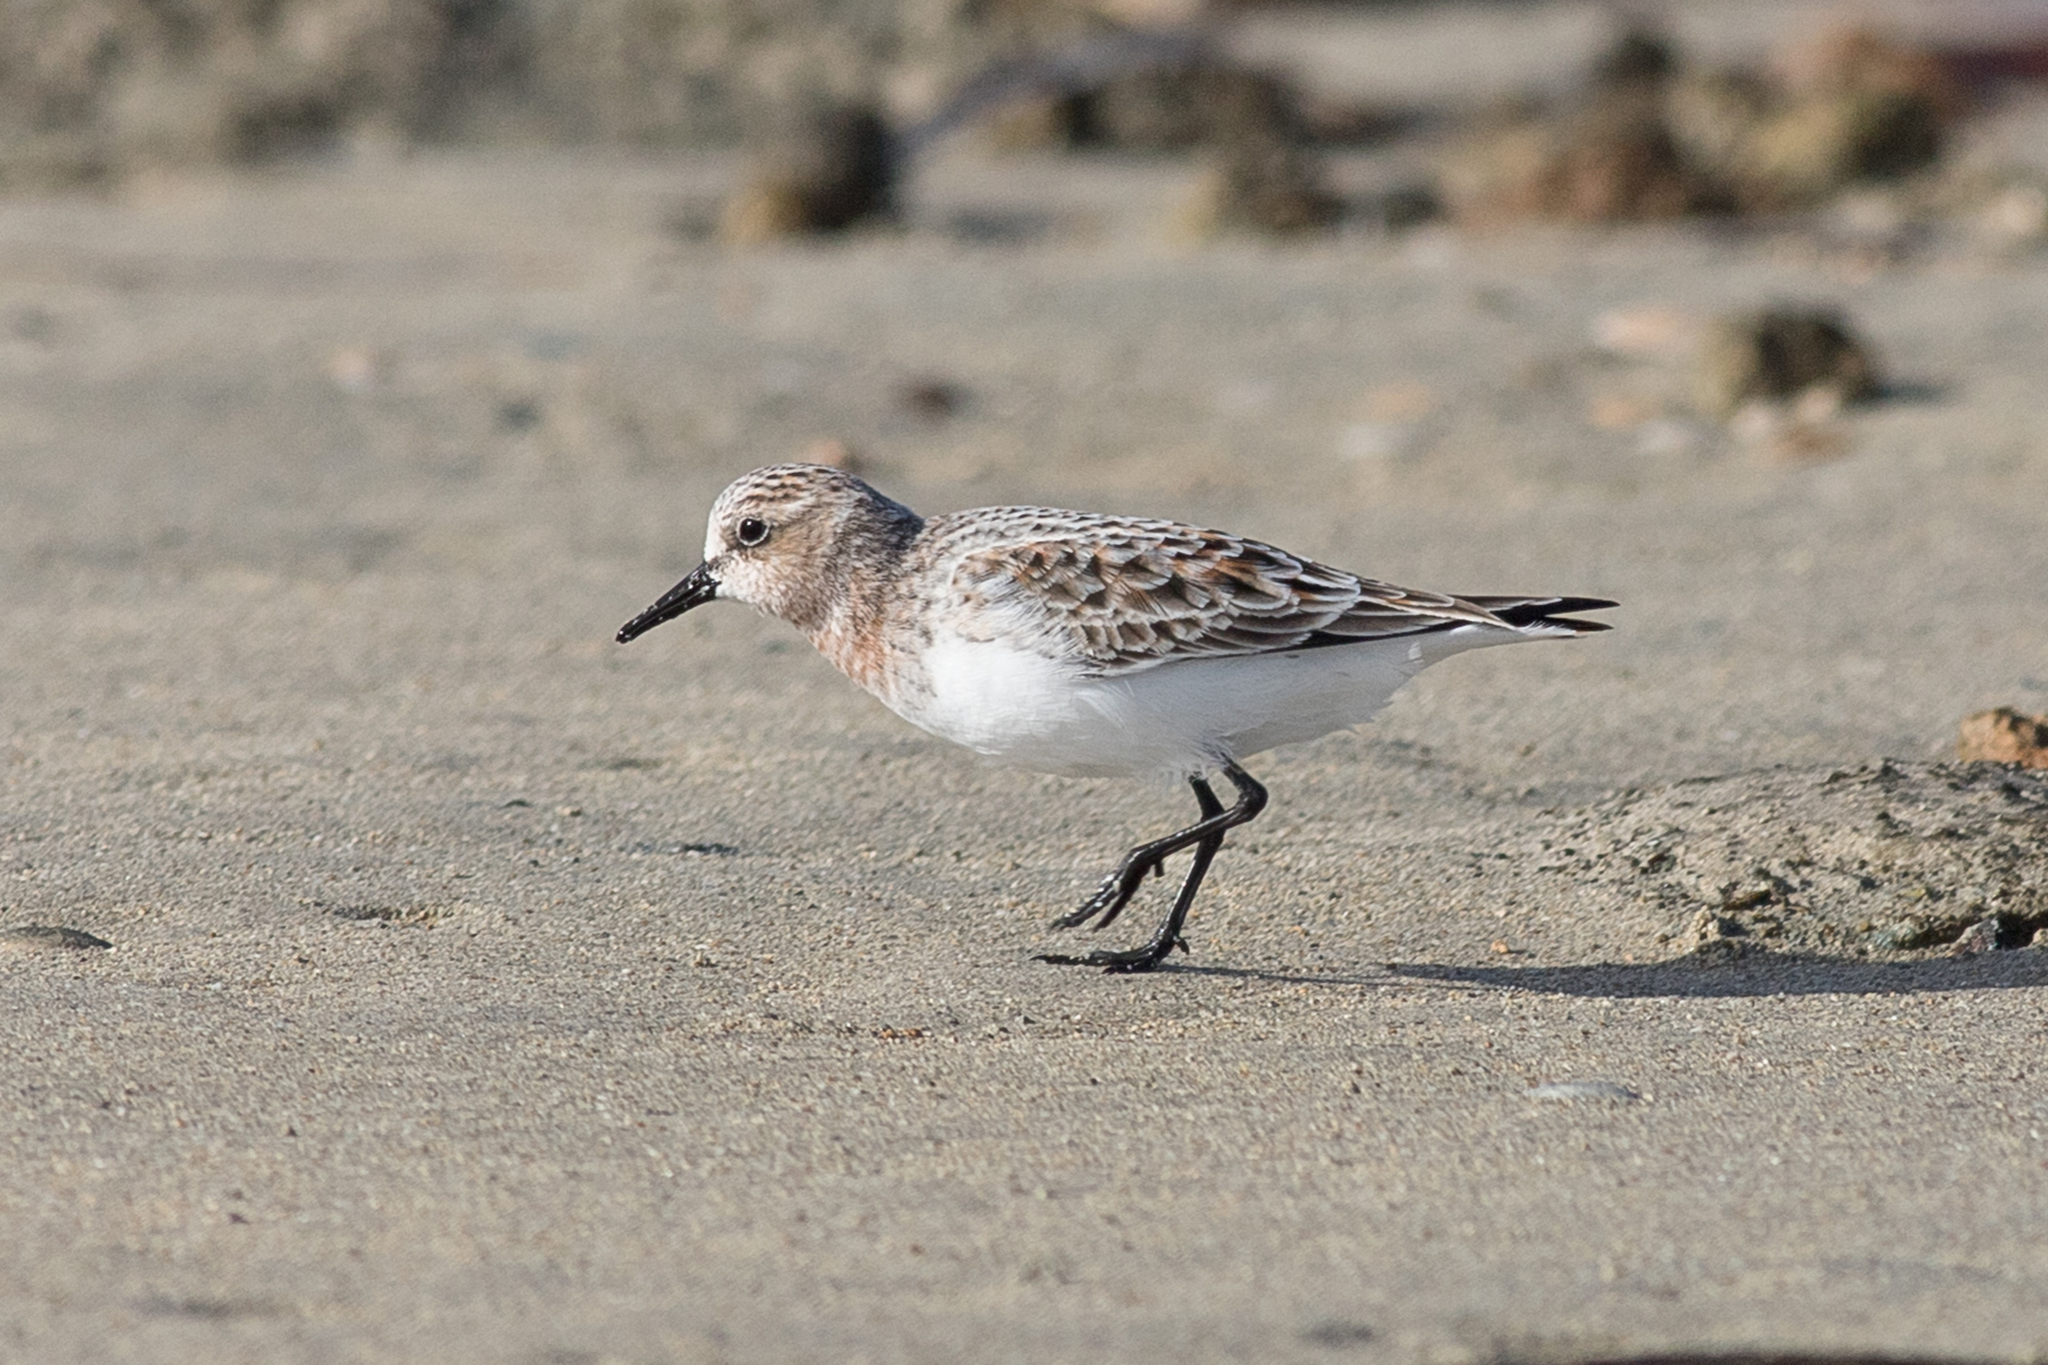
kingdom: Animalia
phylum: Chordata
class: Aves
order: Charadriiformes
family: Scolopacidae
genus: Calidris
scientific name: Calidris ruficollis
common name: Red-necked stint
